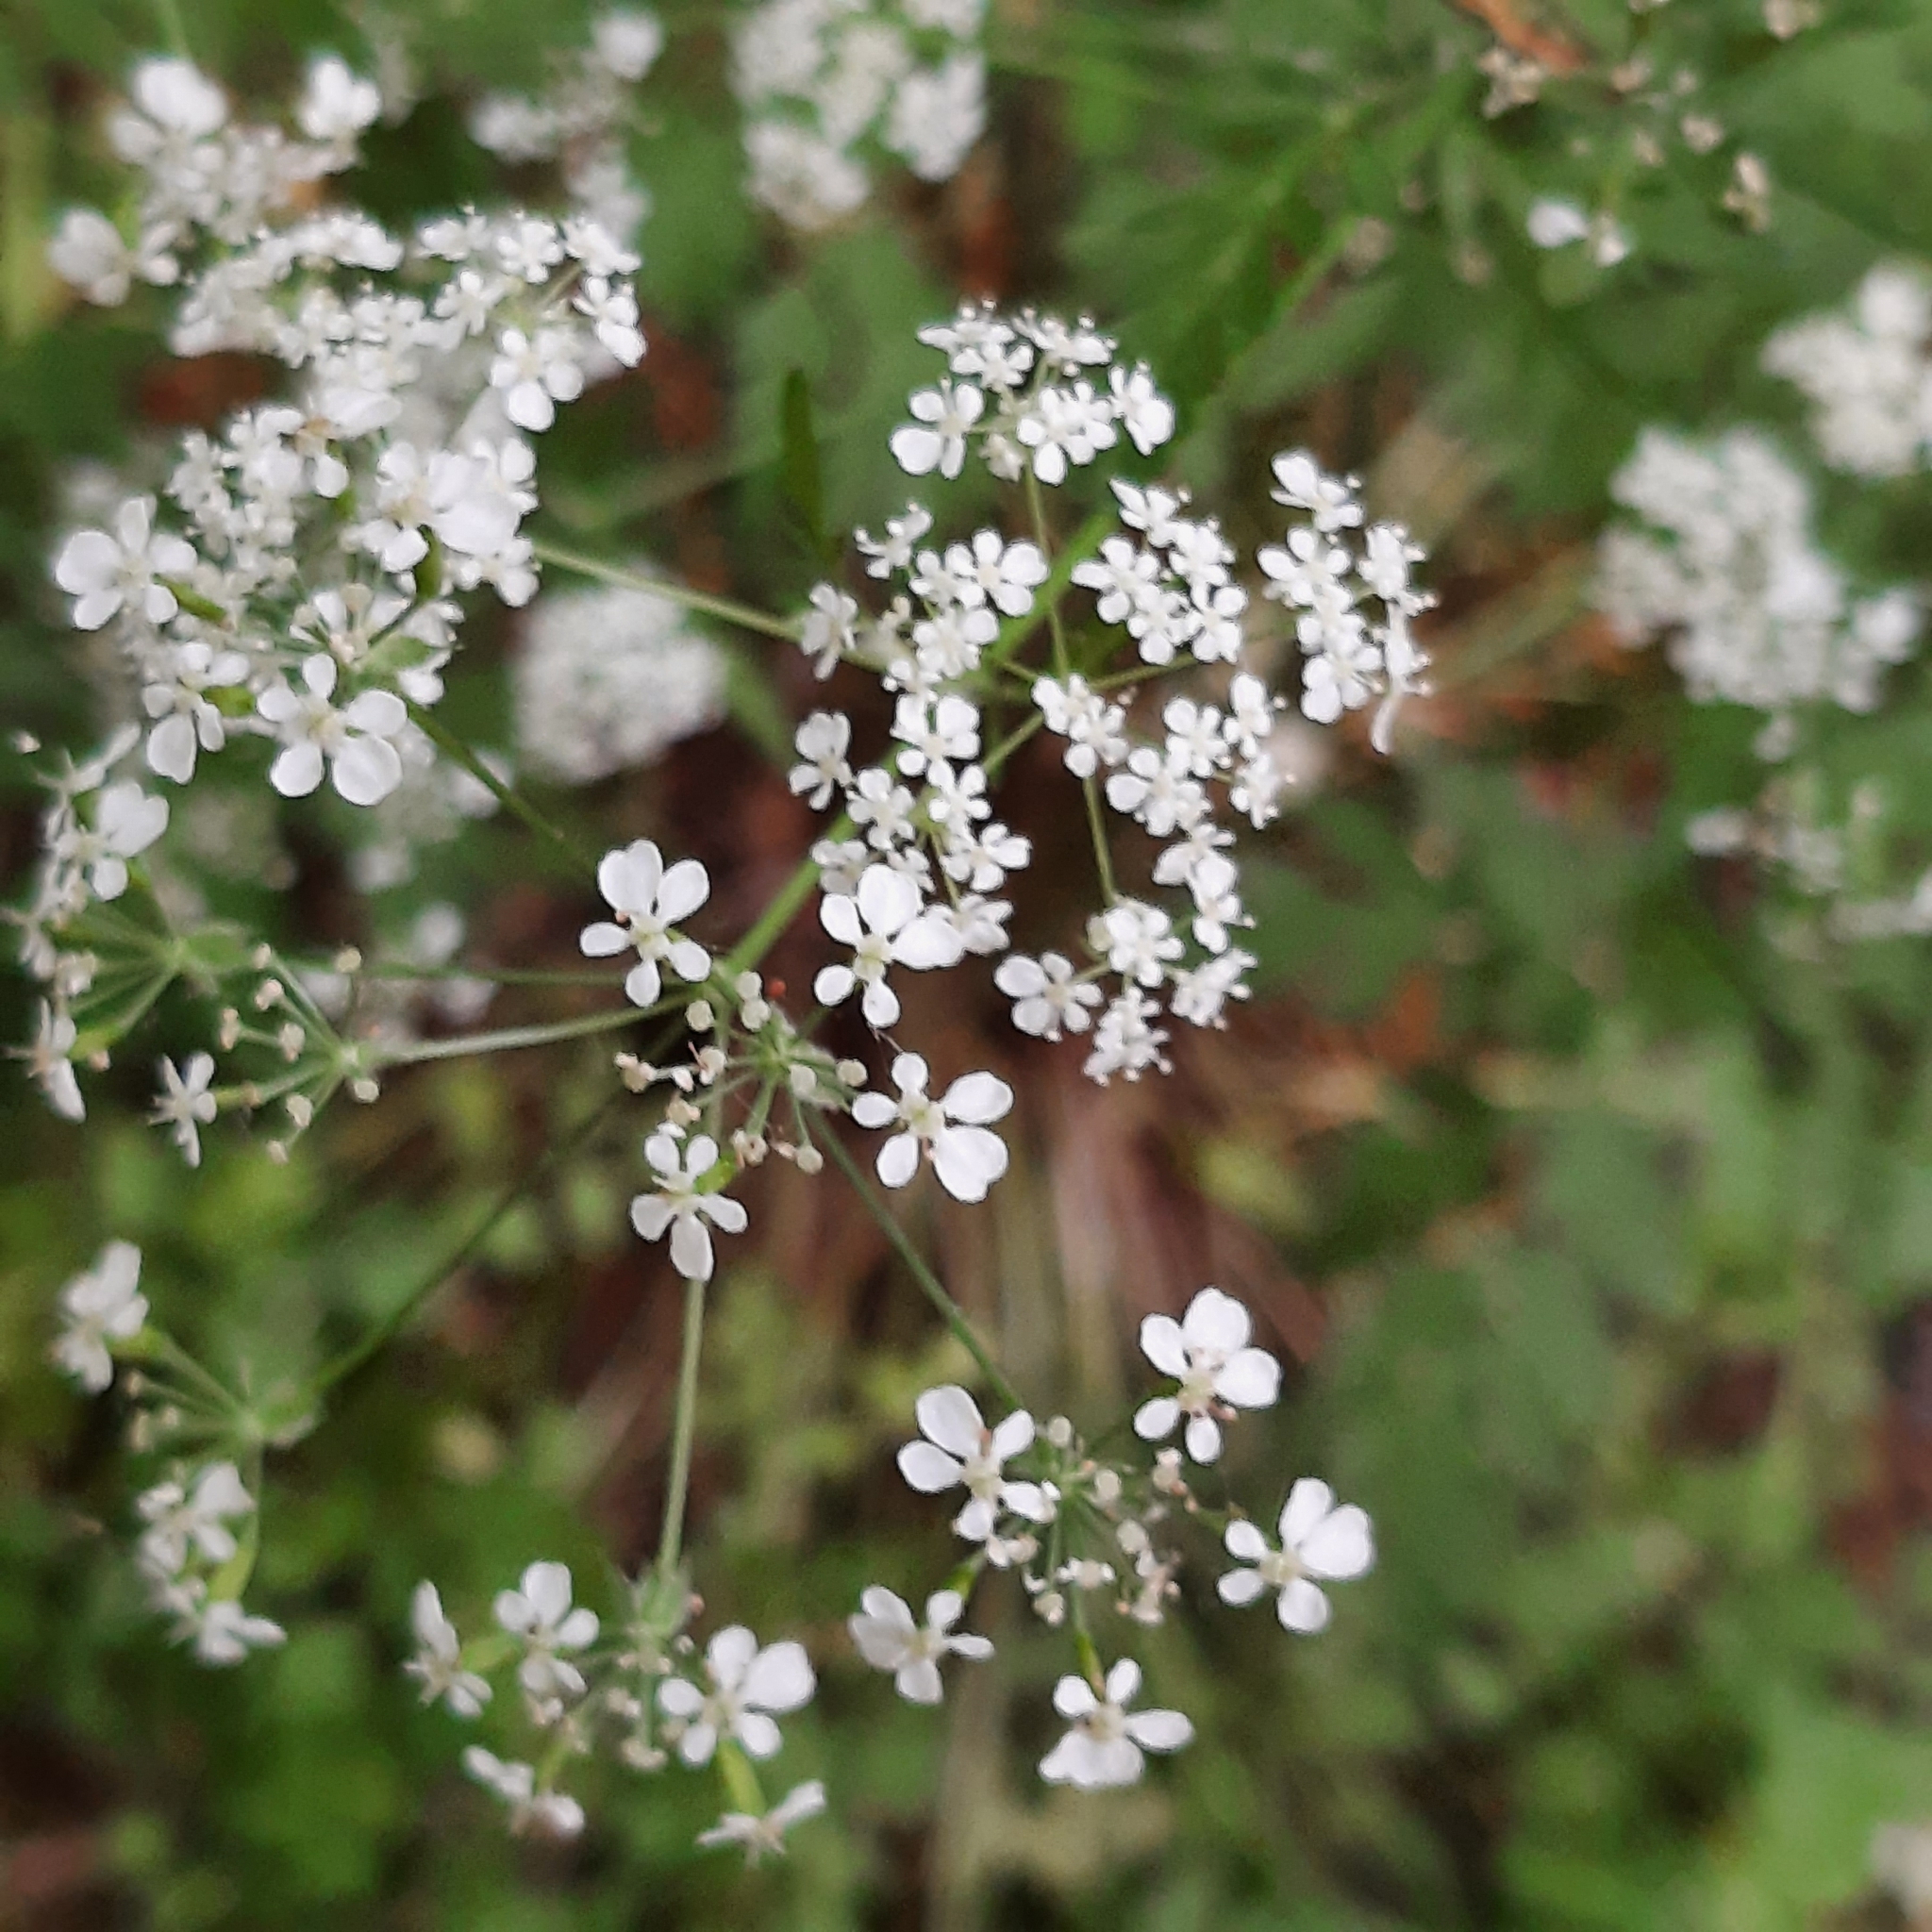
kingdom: Plantae
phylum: Tracheophyta
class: Magnoliopsida
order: Apiales
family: Apiaceae
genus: Anthriscus
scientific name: Anthriscus sylvestris
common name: Cow parsley
